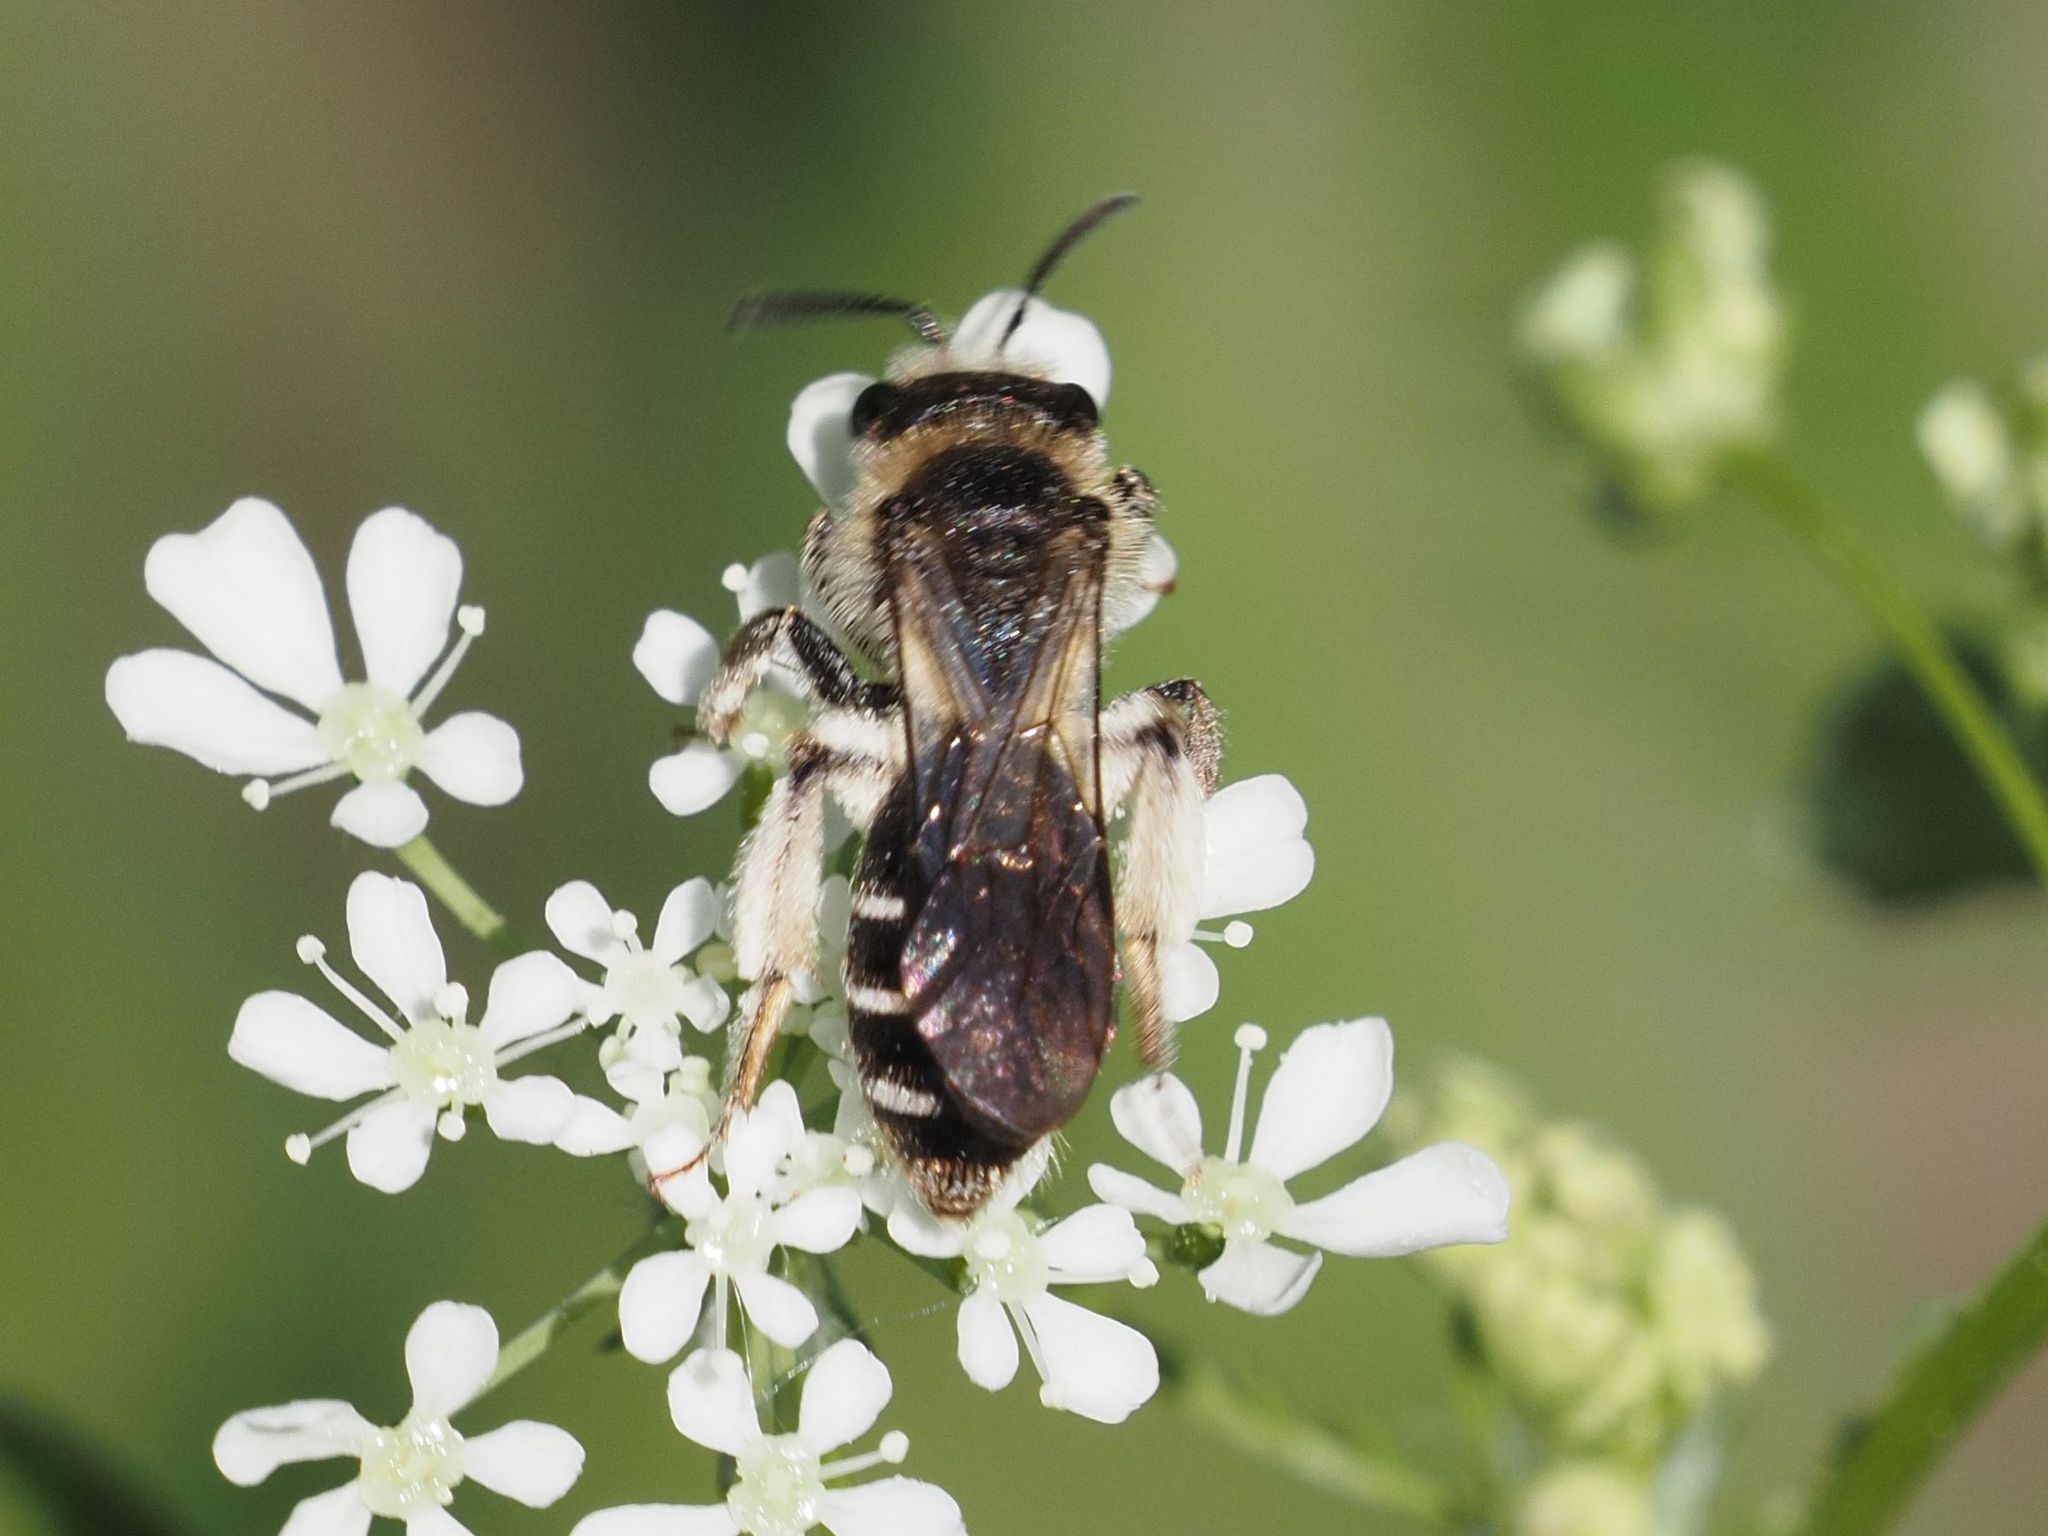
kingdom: Animalia
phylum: Arthropoda
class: Insecta
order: Hymenoptera
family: Andrenidae
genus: Andrena
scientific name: Andrena proxima
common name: Broad-faced mining bee
